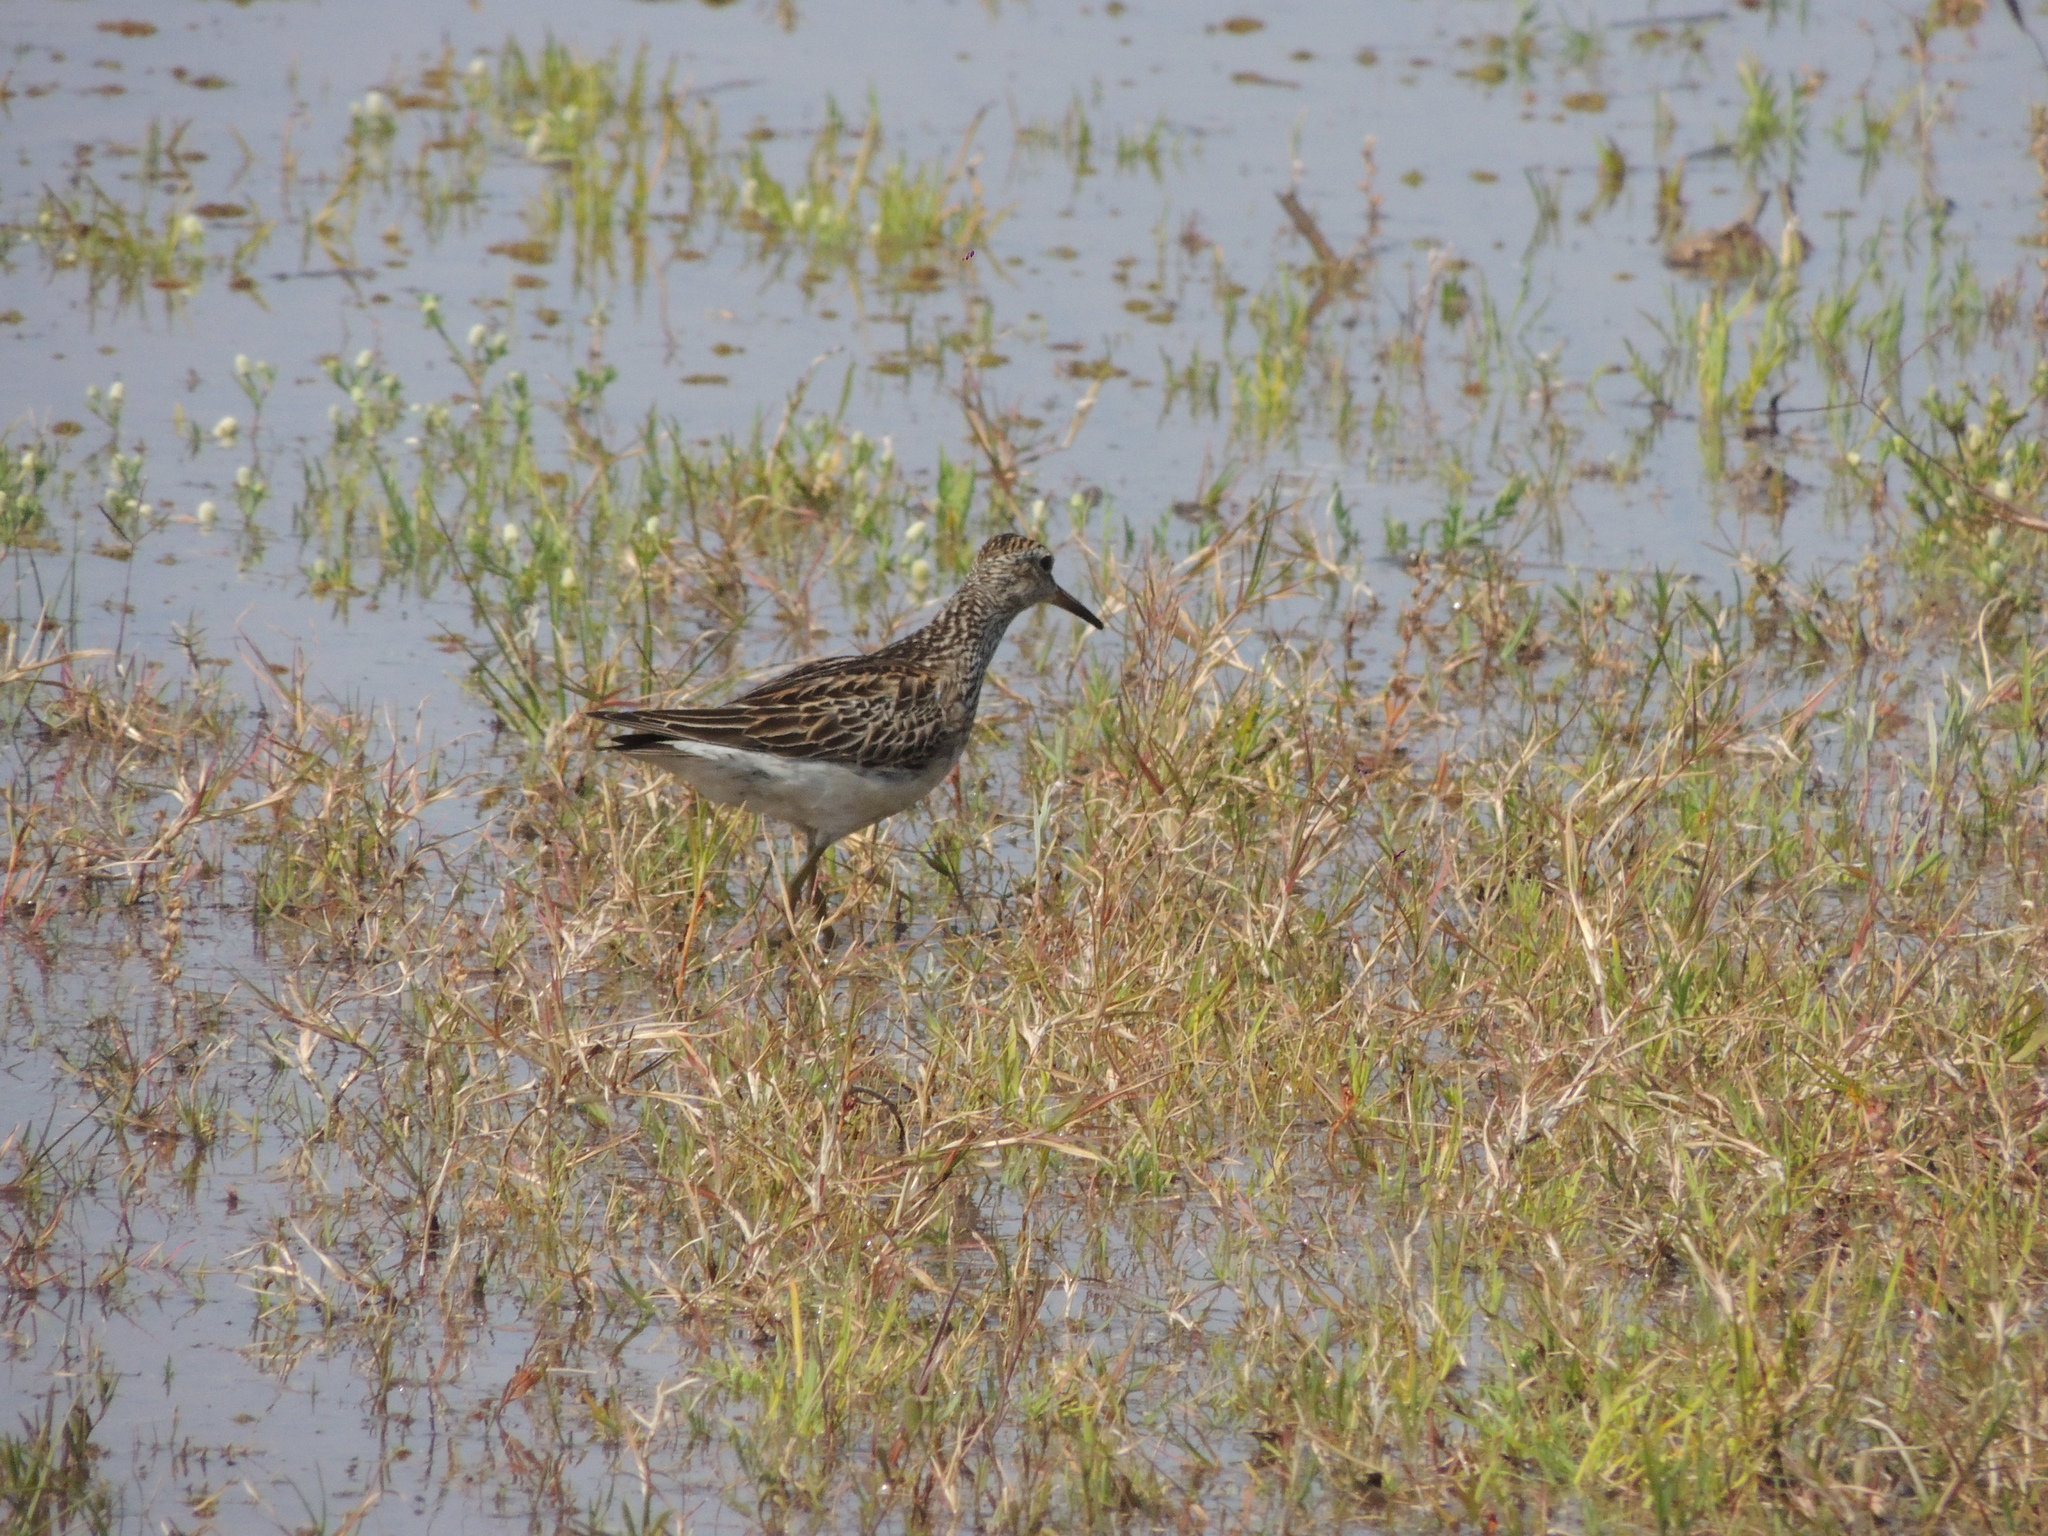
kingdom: Animalia
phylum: Chordata
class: Aves
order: Charadriiformes
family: Scolopacidae
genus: Calidris
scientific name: Calidris melanotos
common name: Pectoral sandpiper
